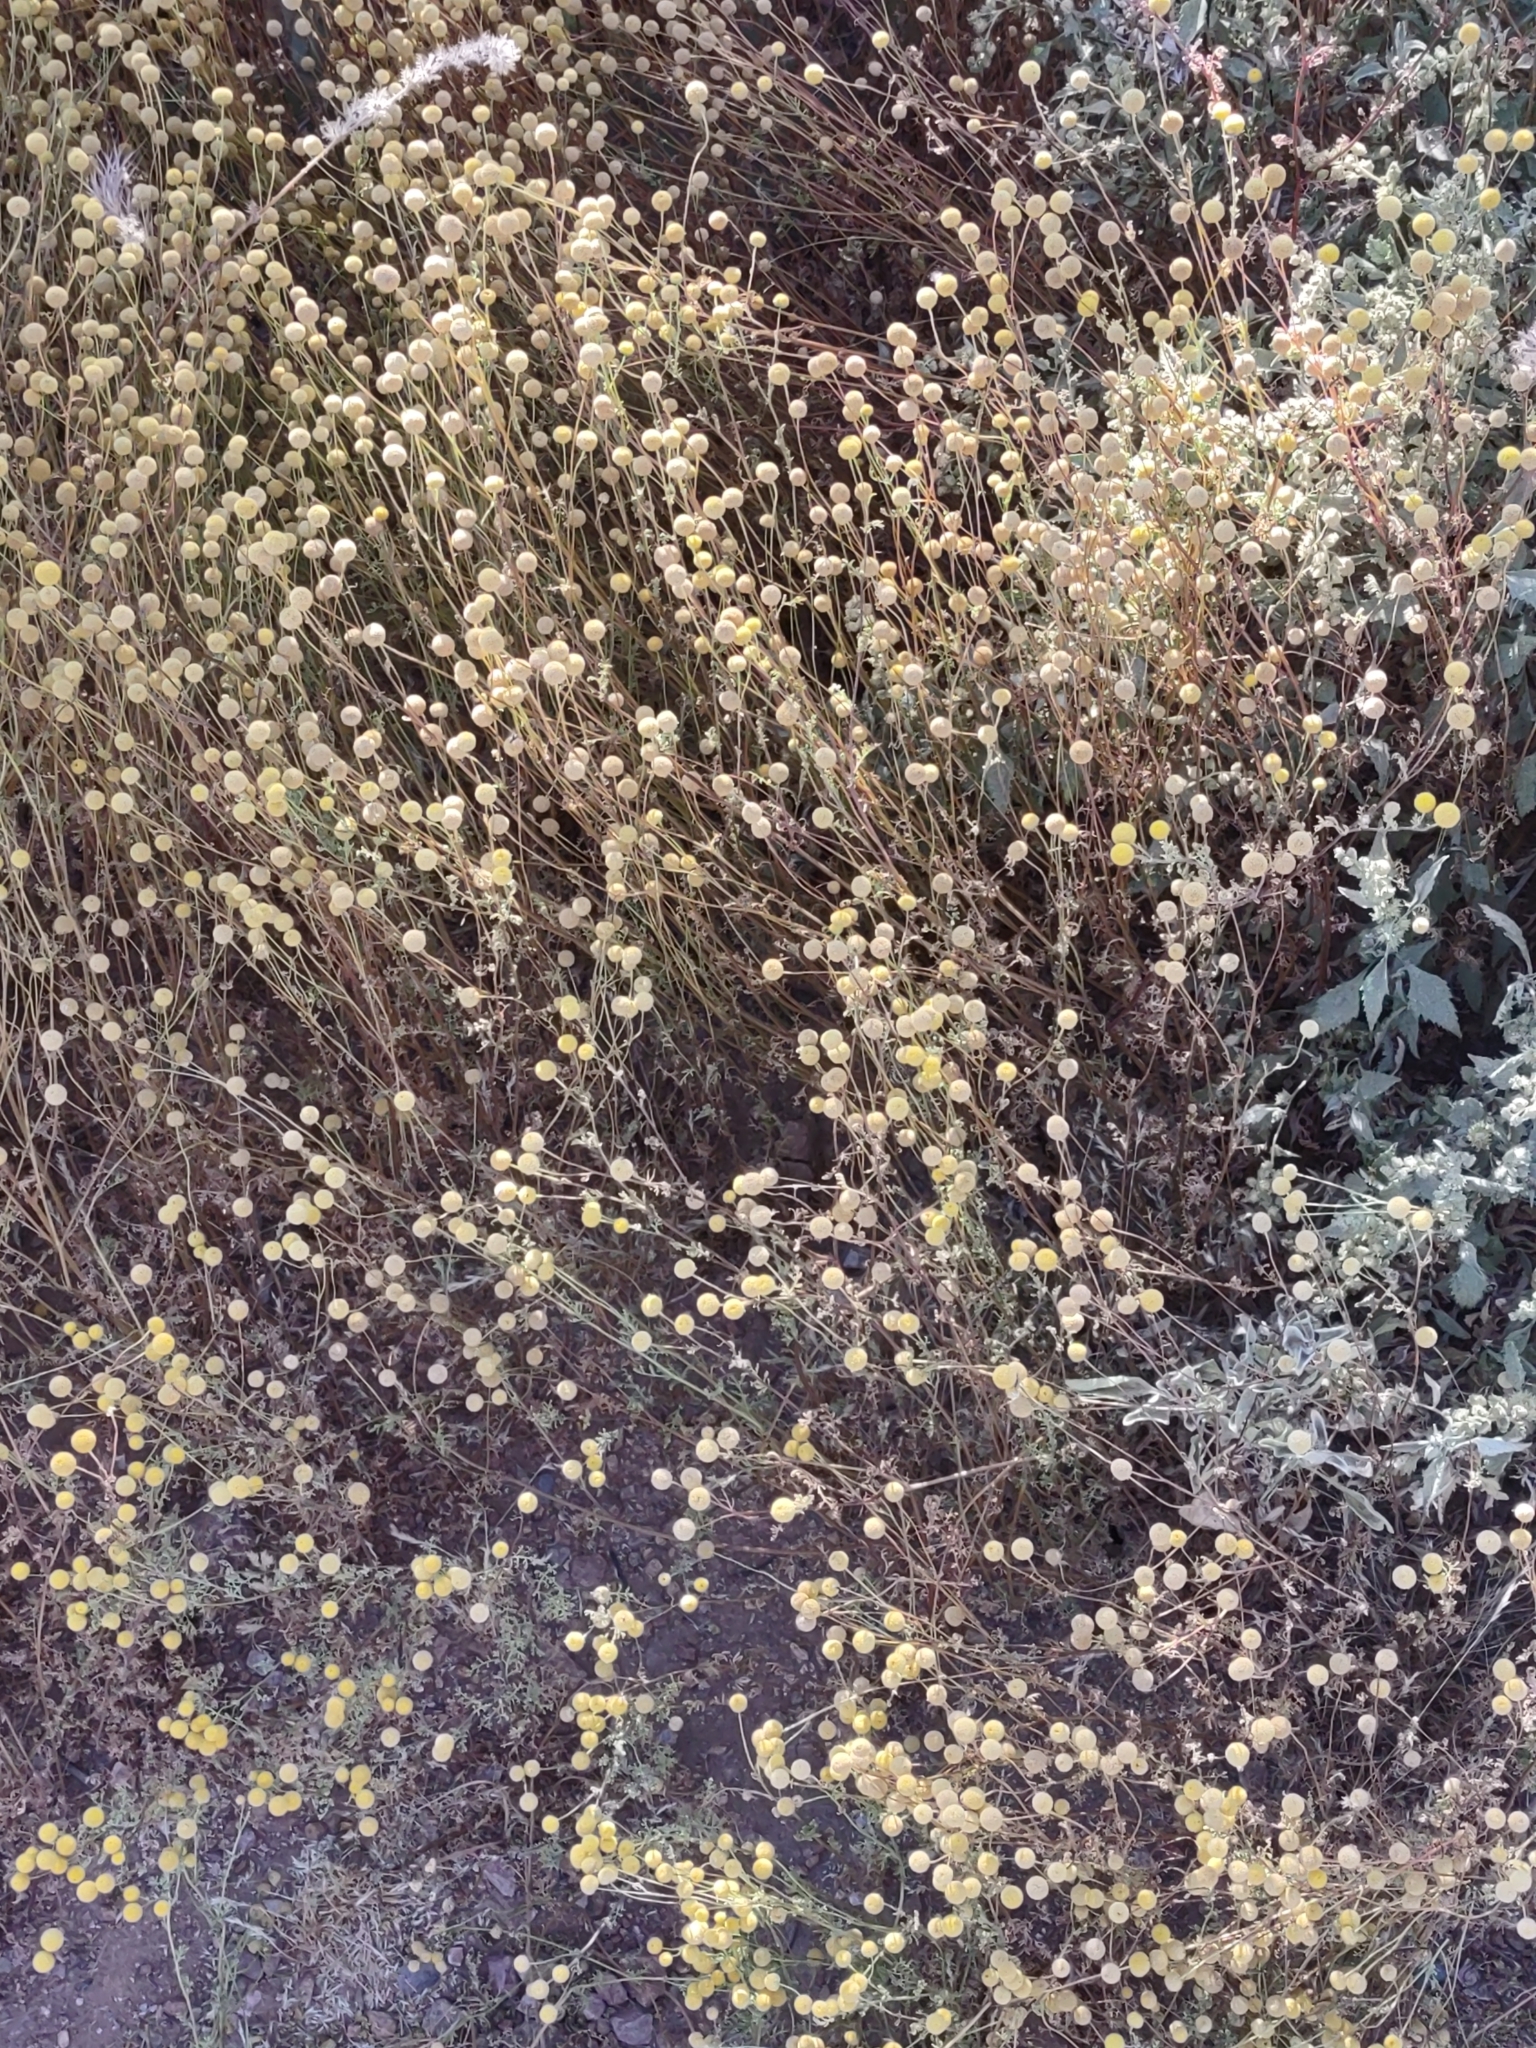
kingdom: Plantae
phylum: Tracheophyta
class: Magnoliopsida
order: Asterales
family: Asteraceae
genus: Oncosiphon
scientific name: Oncosiphon pilulifer
